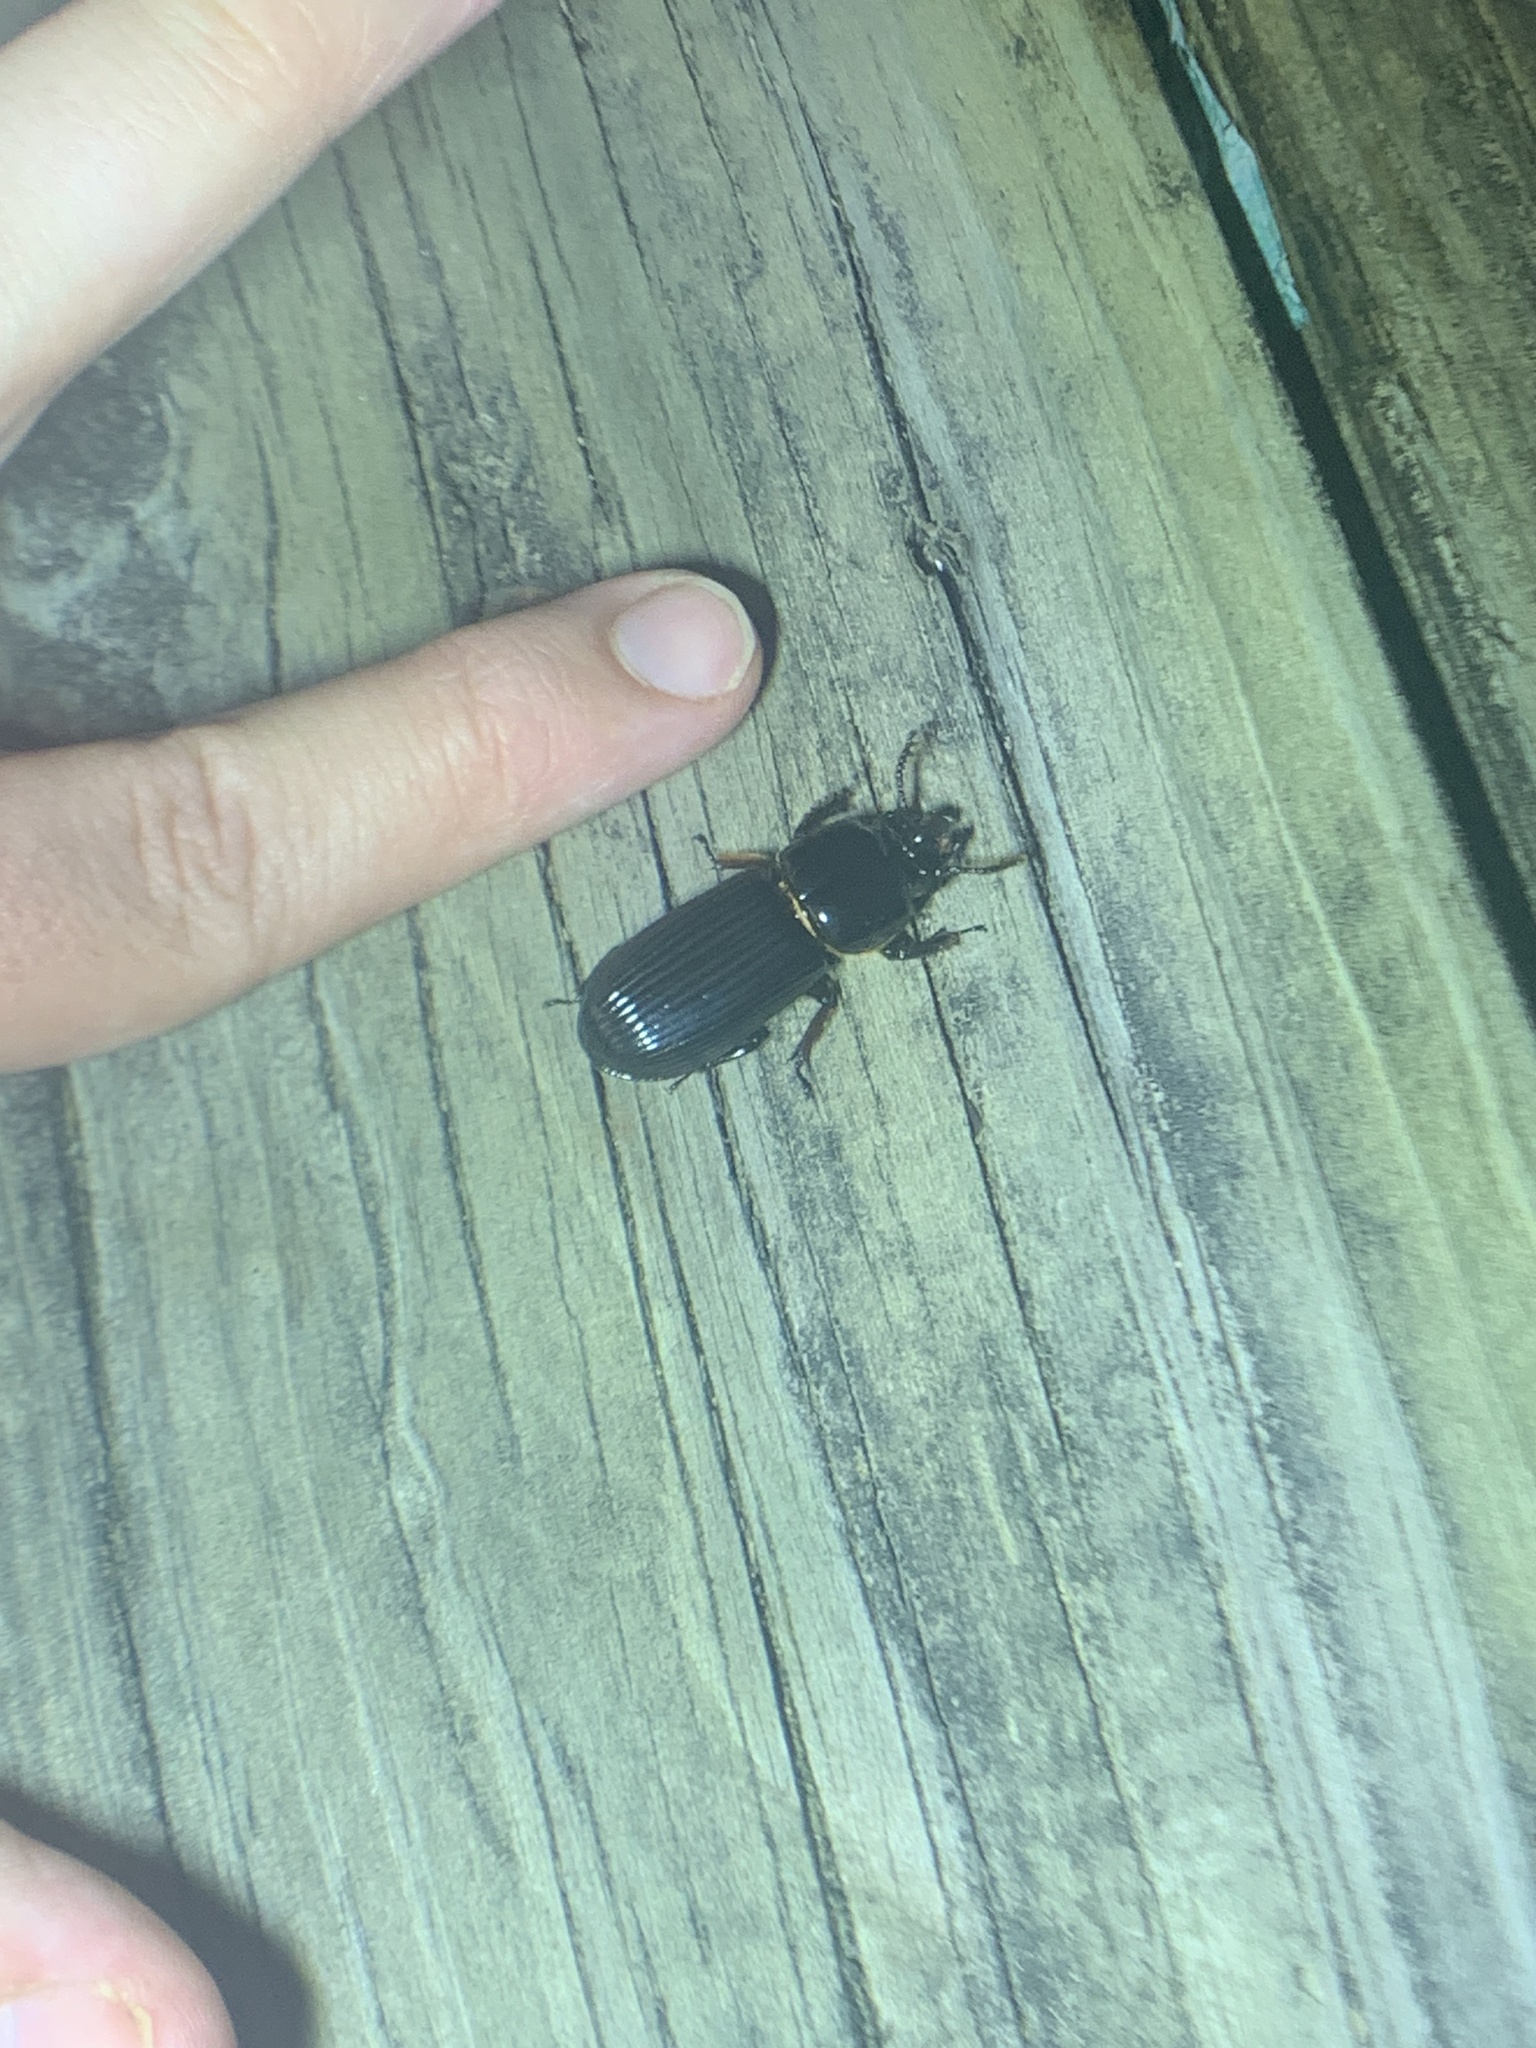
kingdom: Animalia
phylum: Arthropoda
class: Insecta
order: Coleoptera
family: Passalidae
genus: Odontotaenius
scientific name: Odontotaenius disjunctus
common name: Patent leather beetle
